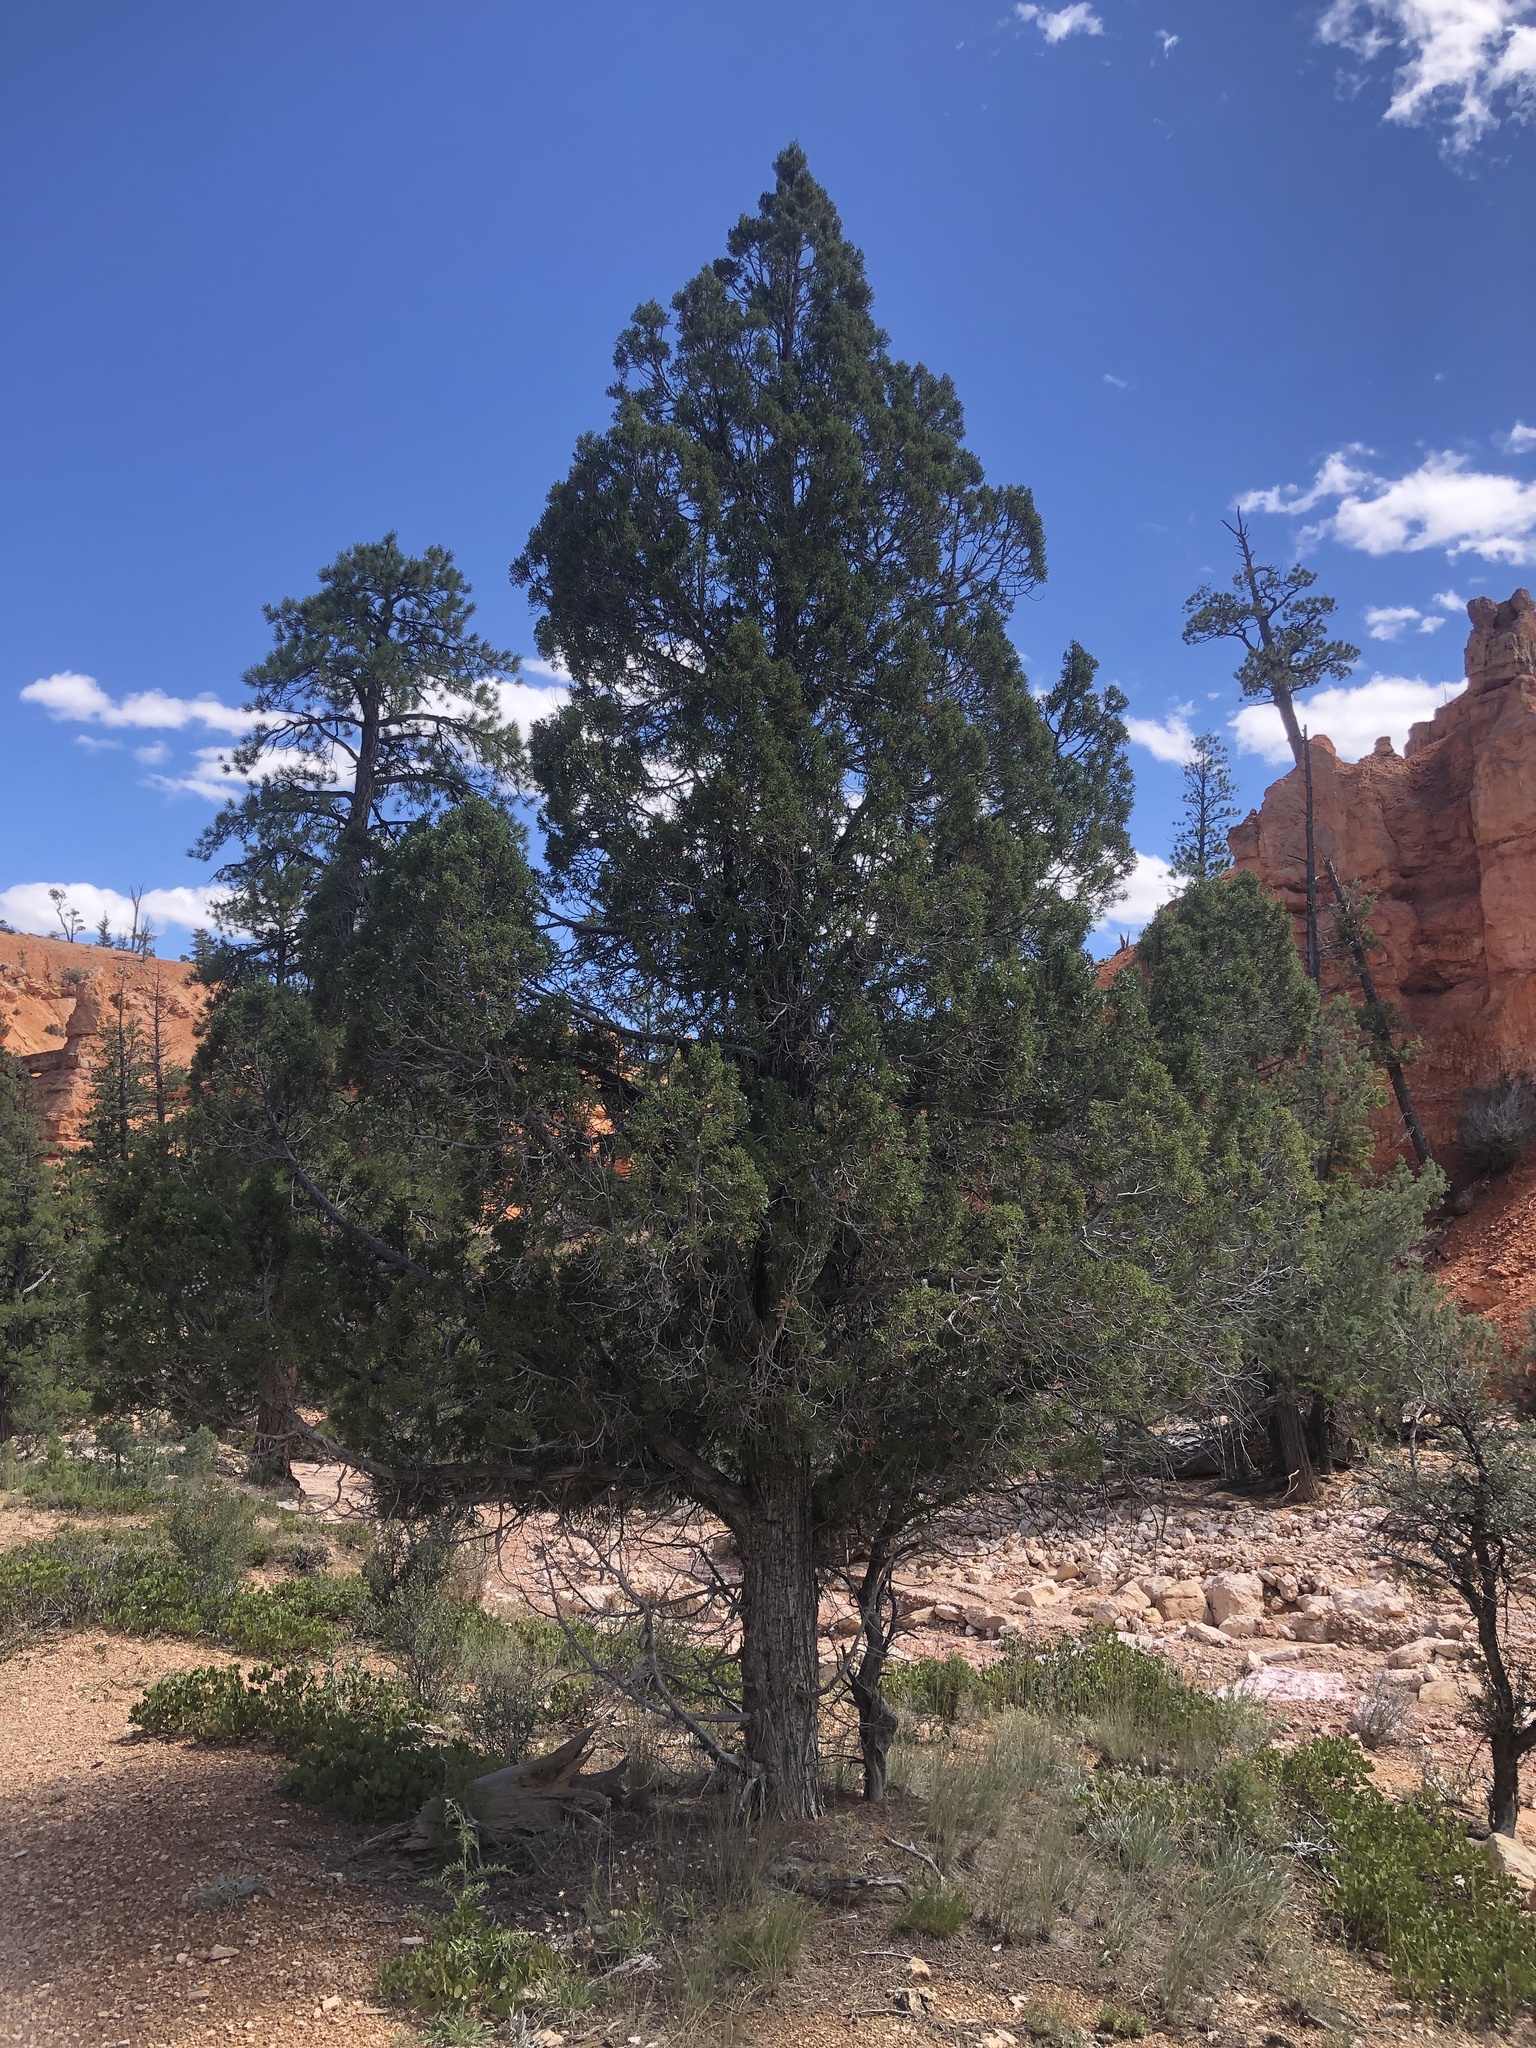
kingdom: Plantae
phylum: Tracheophyta
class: Pinopsida
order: Pinales
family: Cupressaceae
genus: Juniperus
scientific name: Juniperus osteosperma
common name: Utah juniper
